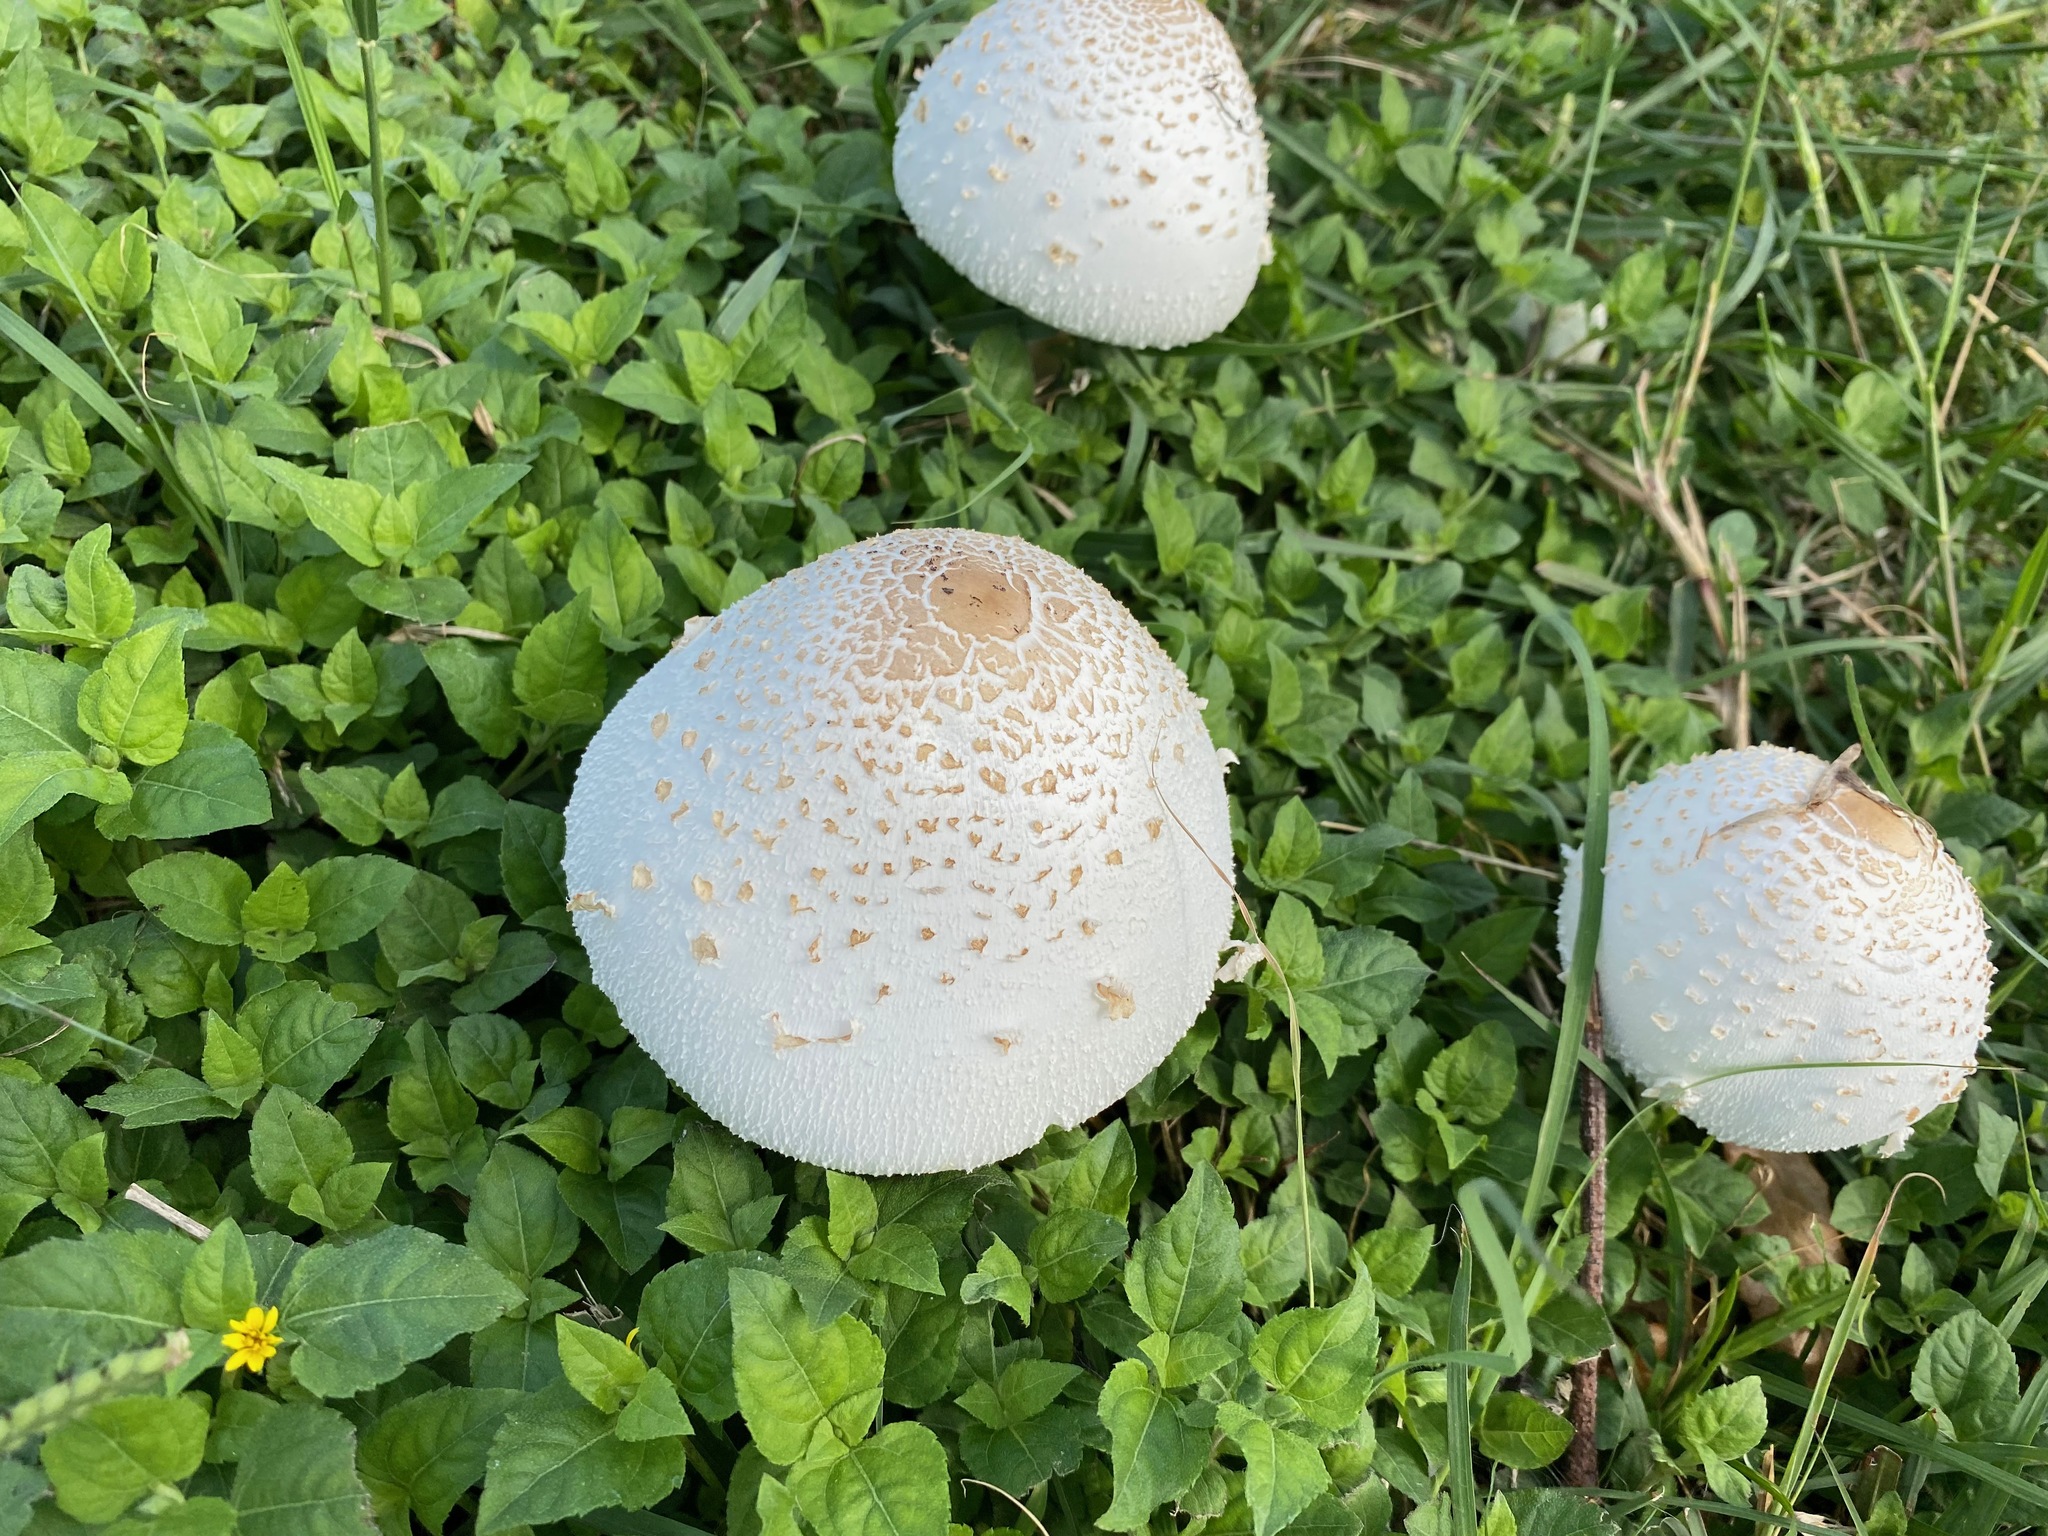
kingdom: Fungi
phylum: Basidiomycota
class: Agaricomycetes
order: Agaricales
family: Agaricaceae
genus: Chlorophyllum
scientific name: Chlorophyllum molybdites
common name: False parasol
